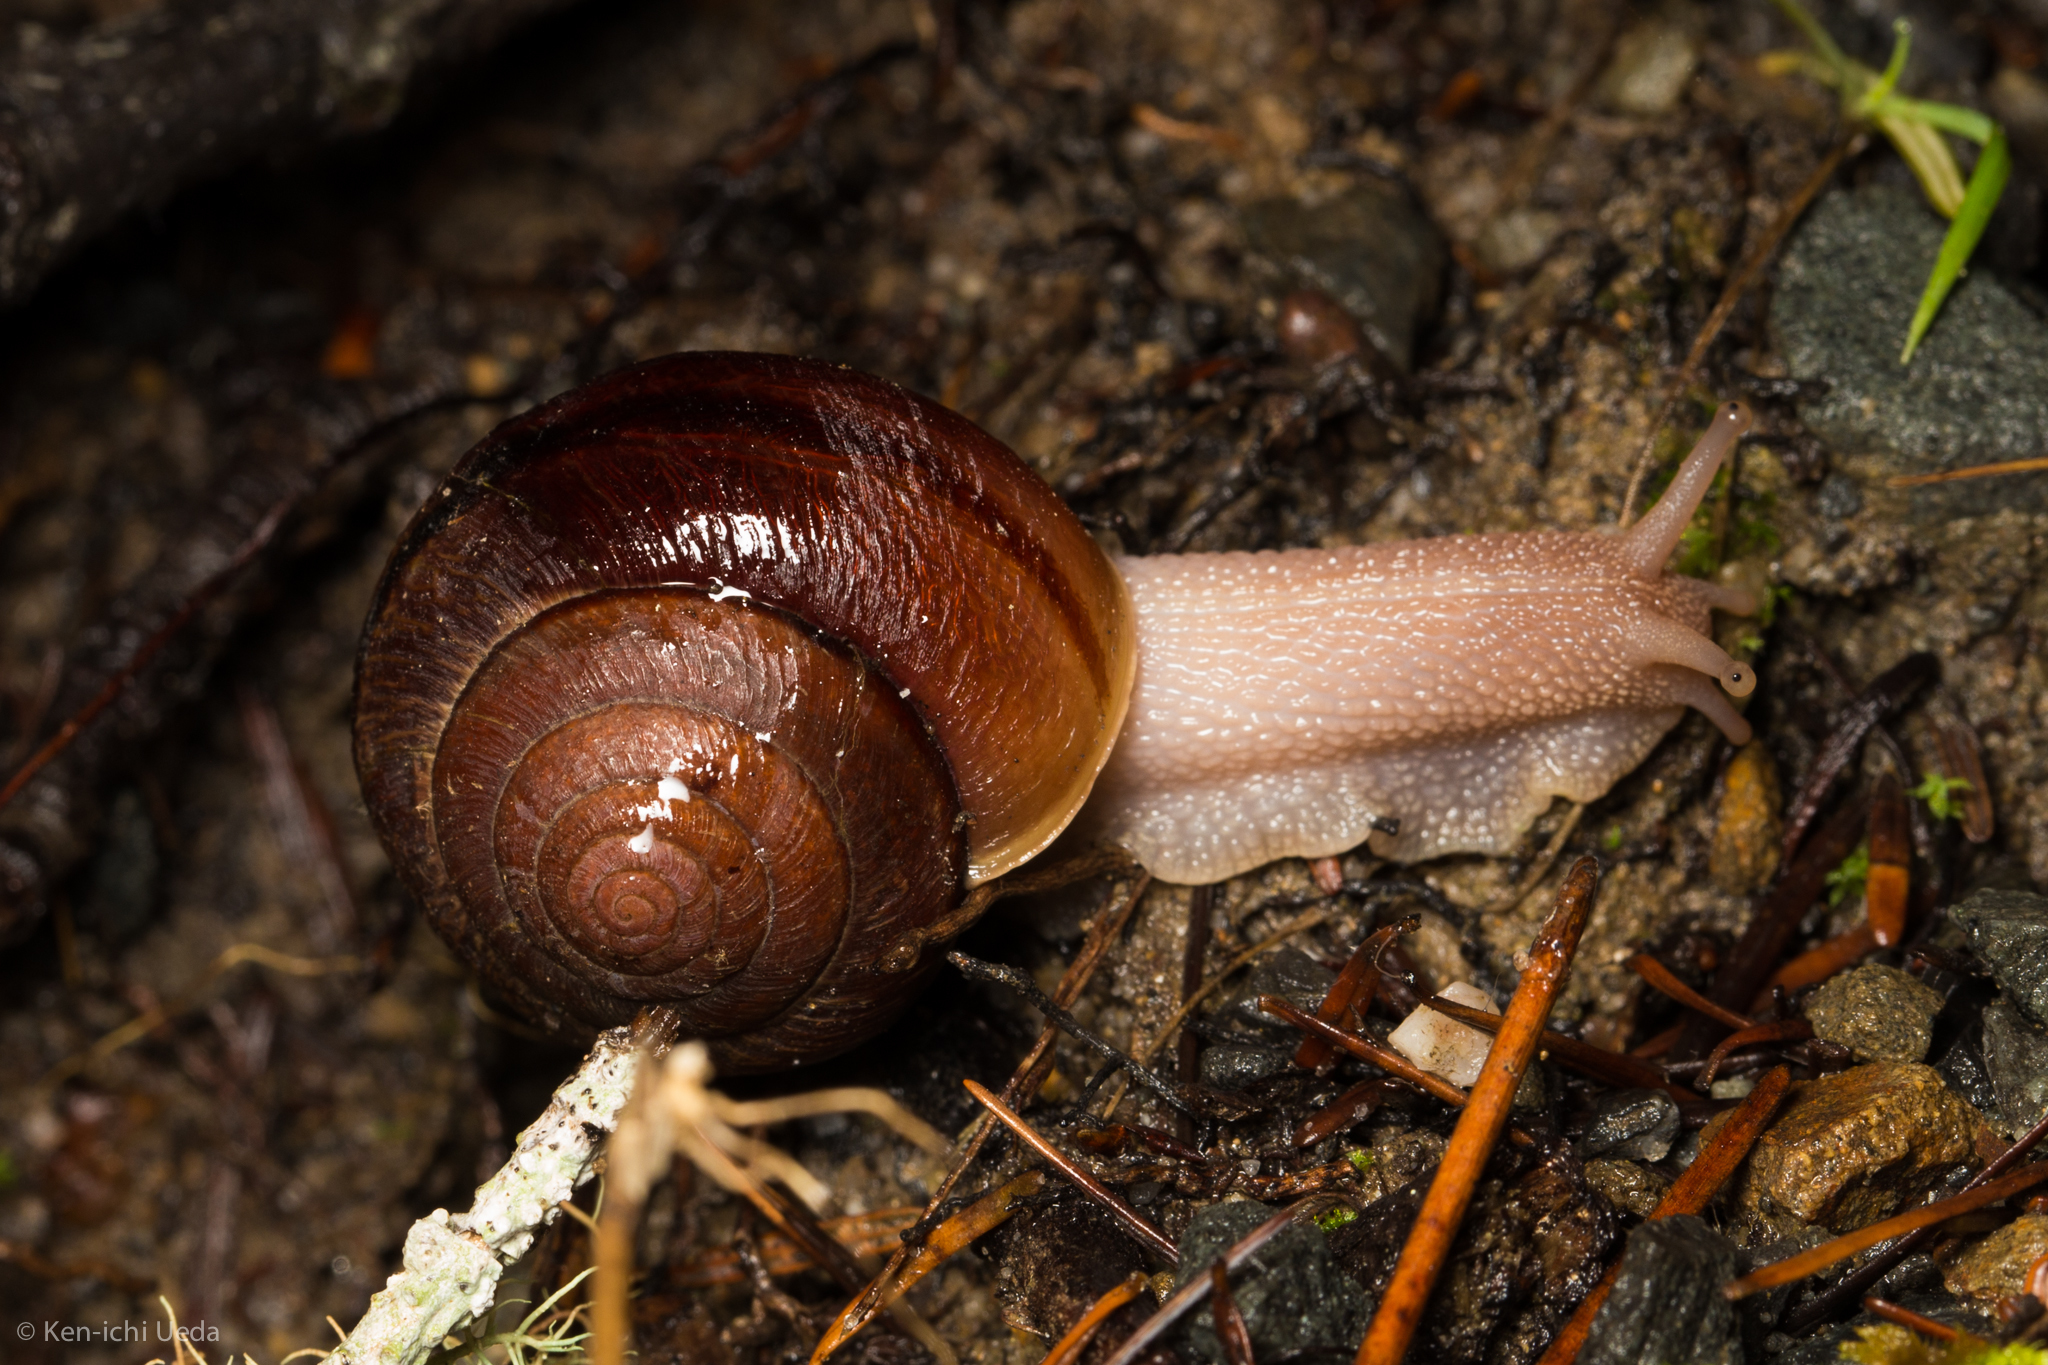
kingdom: Animalia
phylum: Mollusca
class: Gastropoda
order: Stylommatophora
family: Xanthonychidae
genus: Helminthoglypta
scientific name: Helminthoglypta arrosa
